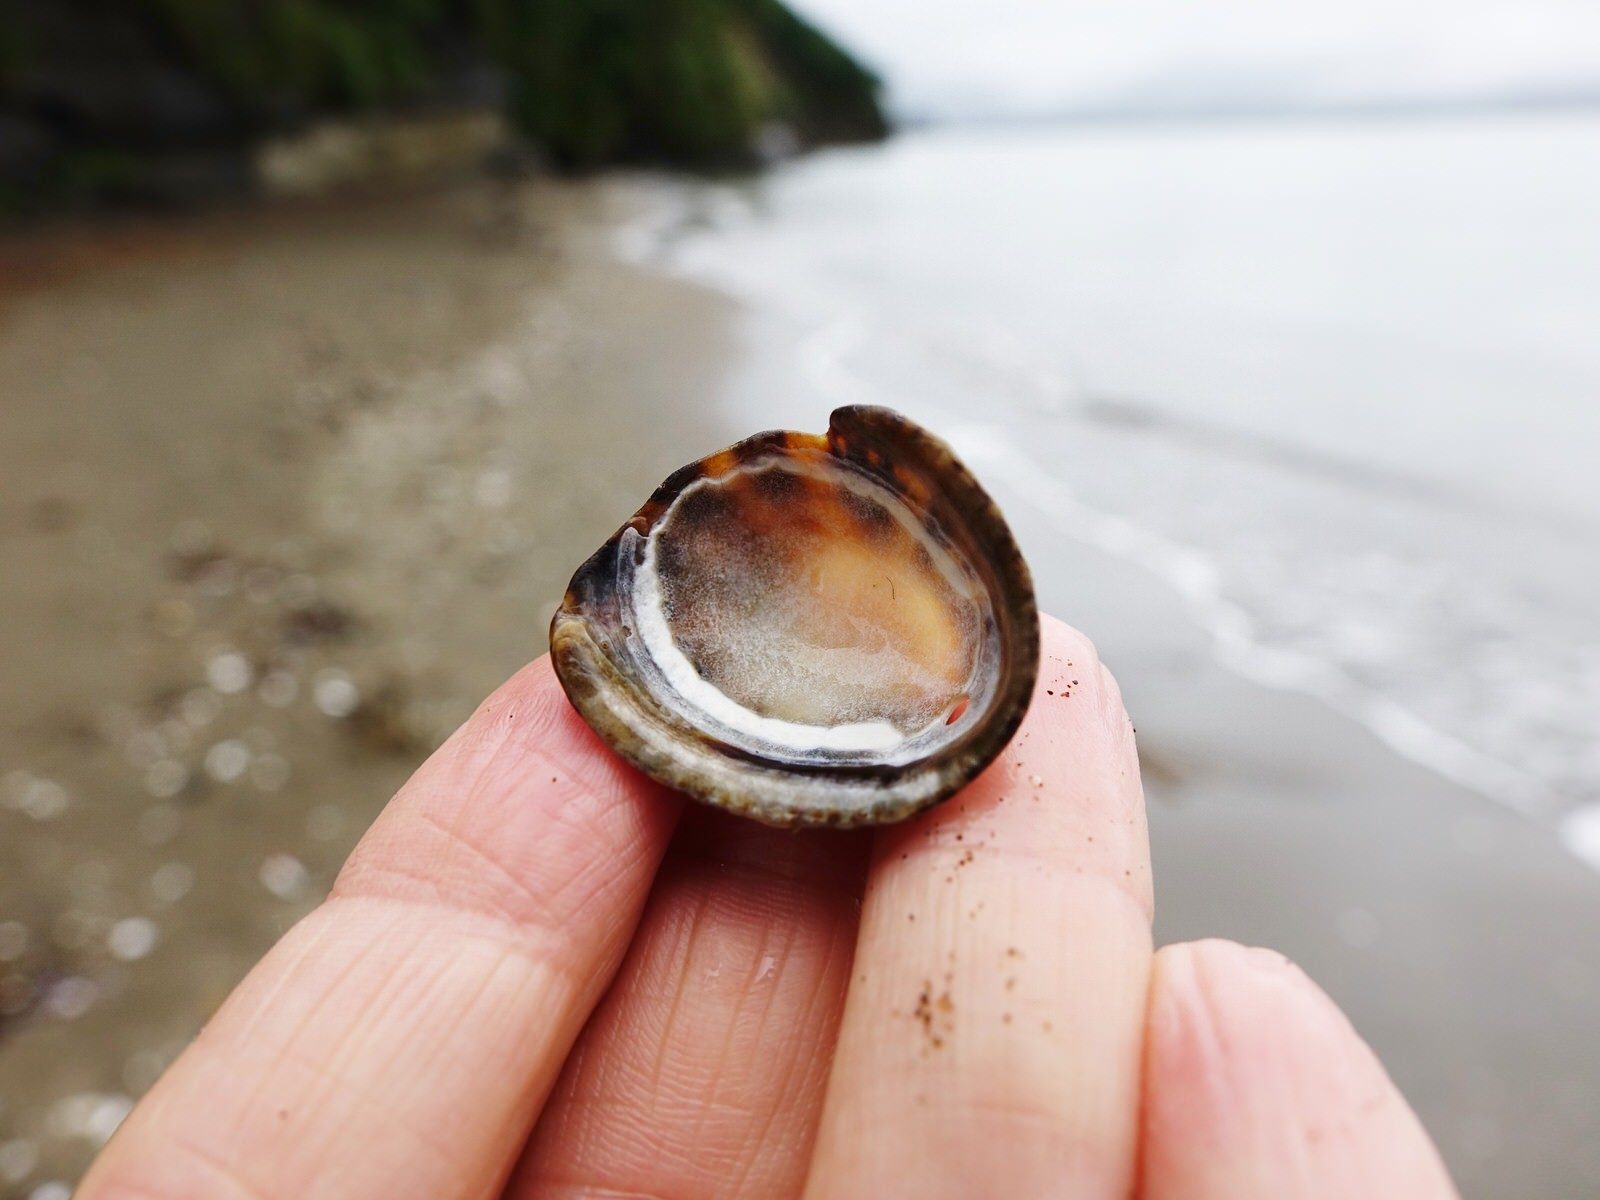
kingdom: Animalia
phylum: Mollusca
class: Gastropoda
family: Nacellidae
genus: Cellana
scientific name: Cellana ornata
